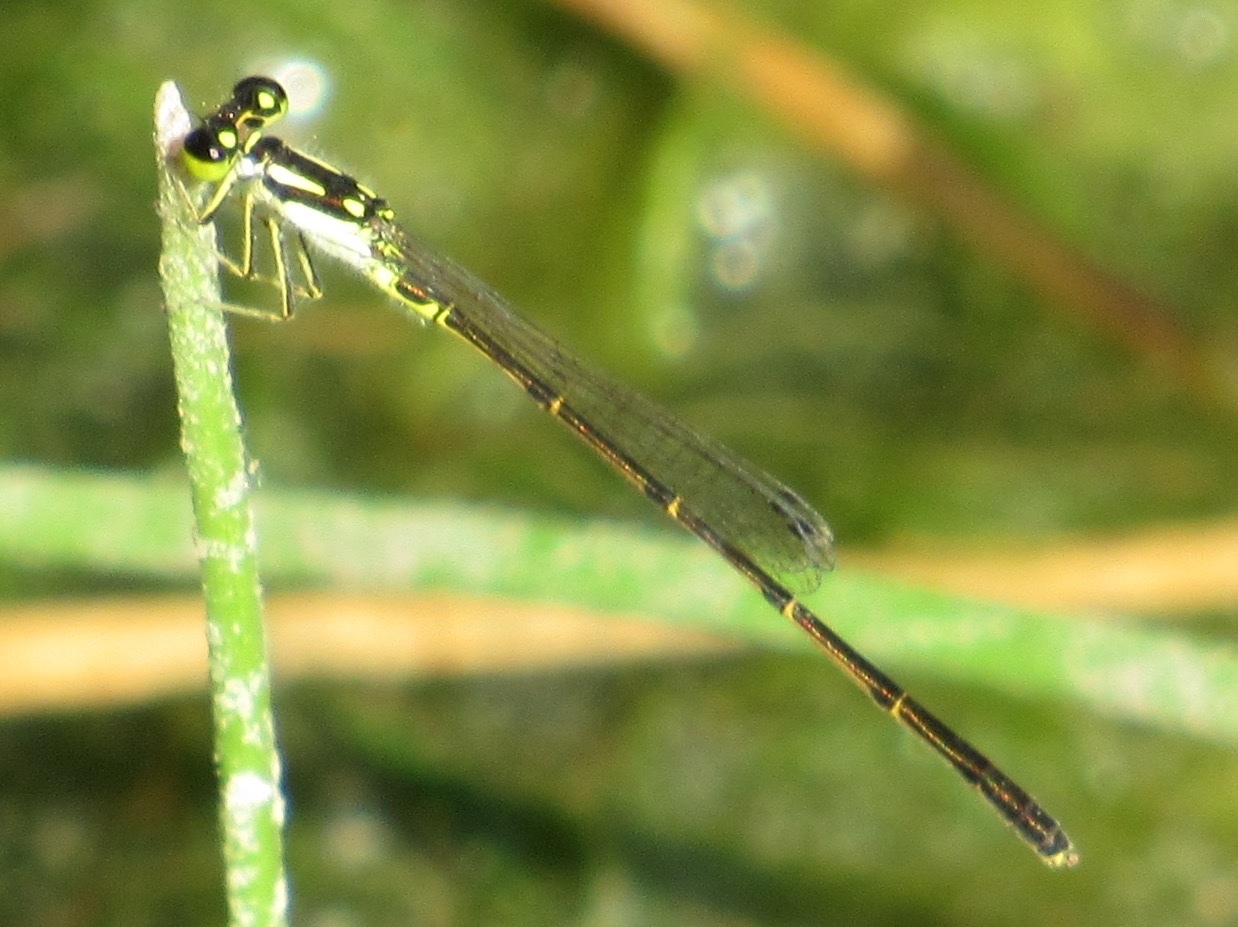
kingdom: Animalia
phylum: Arthropoda
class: Insecta
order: Odonata
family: Coenagrionidae
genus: Ischnura
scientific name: Ischnura posita
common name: Fragile forktail
